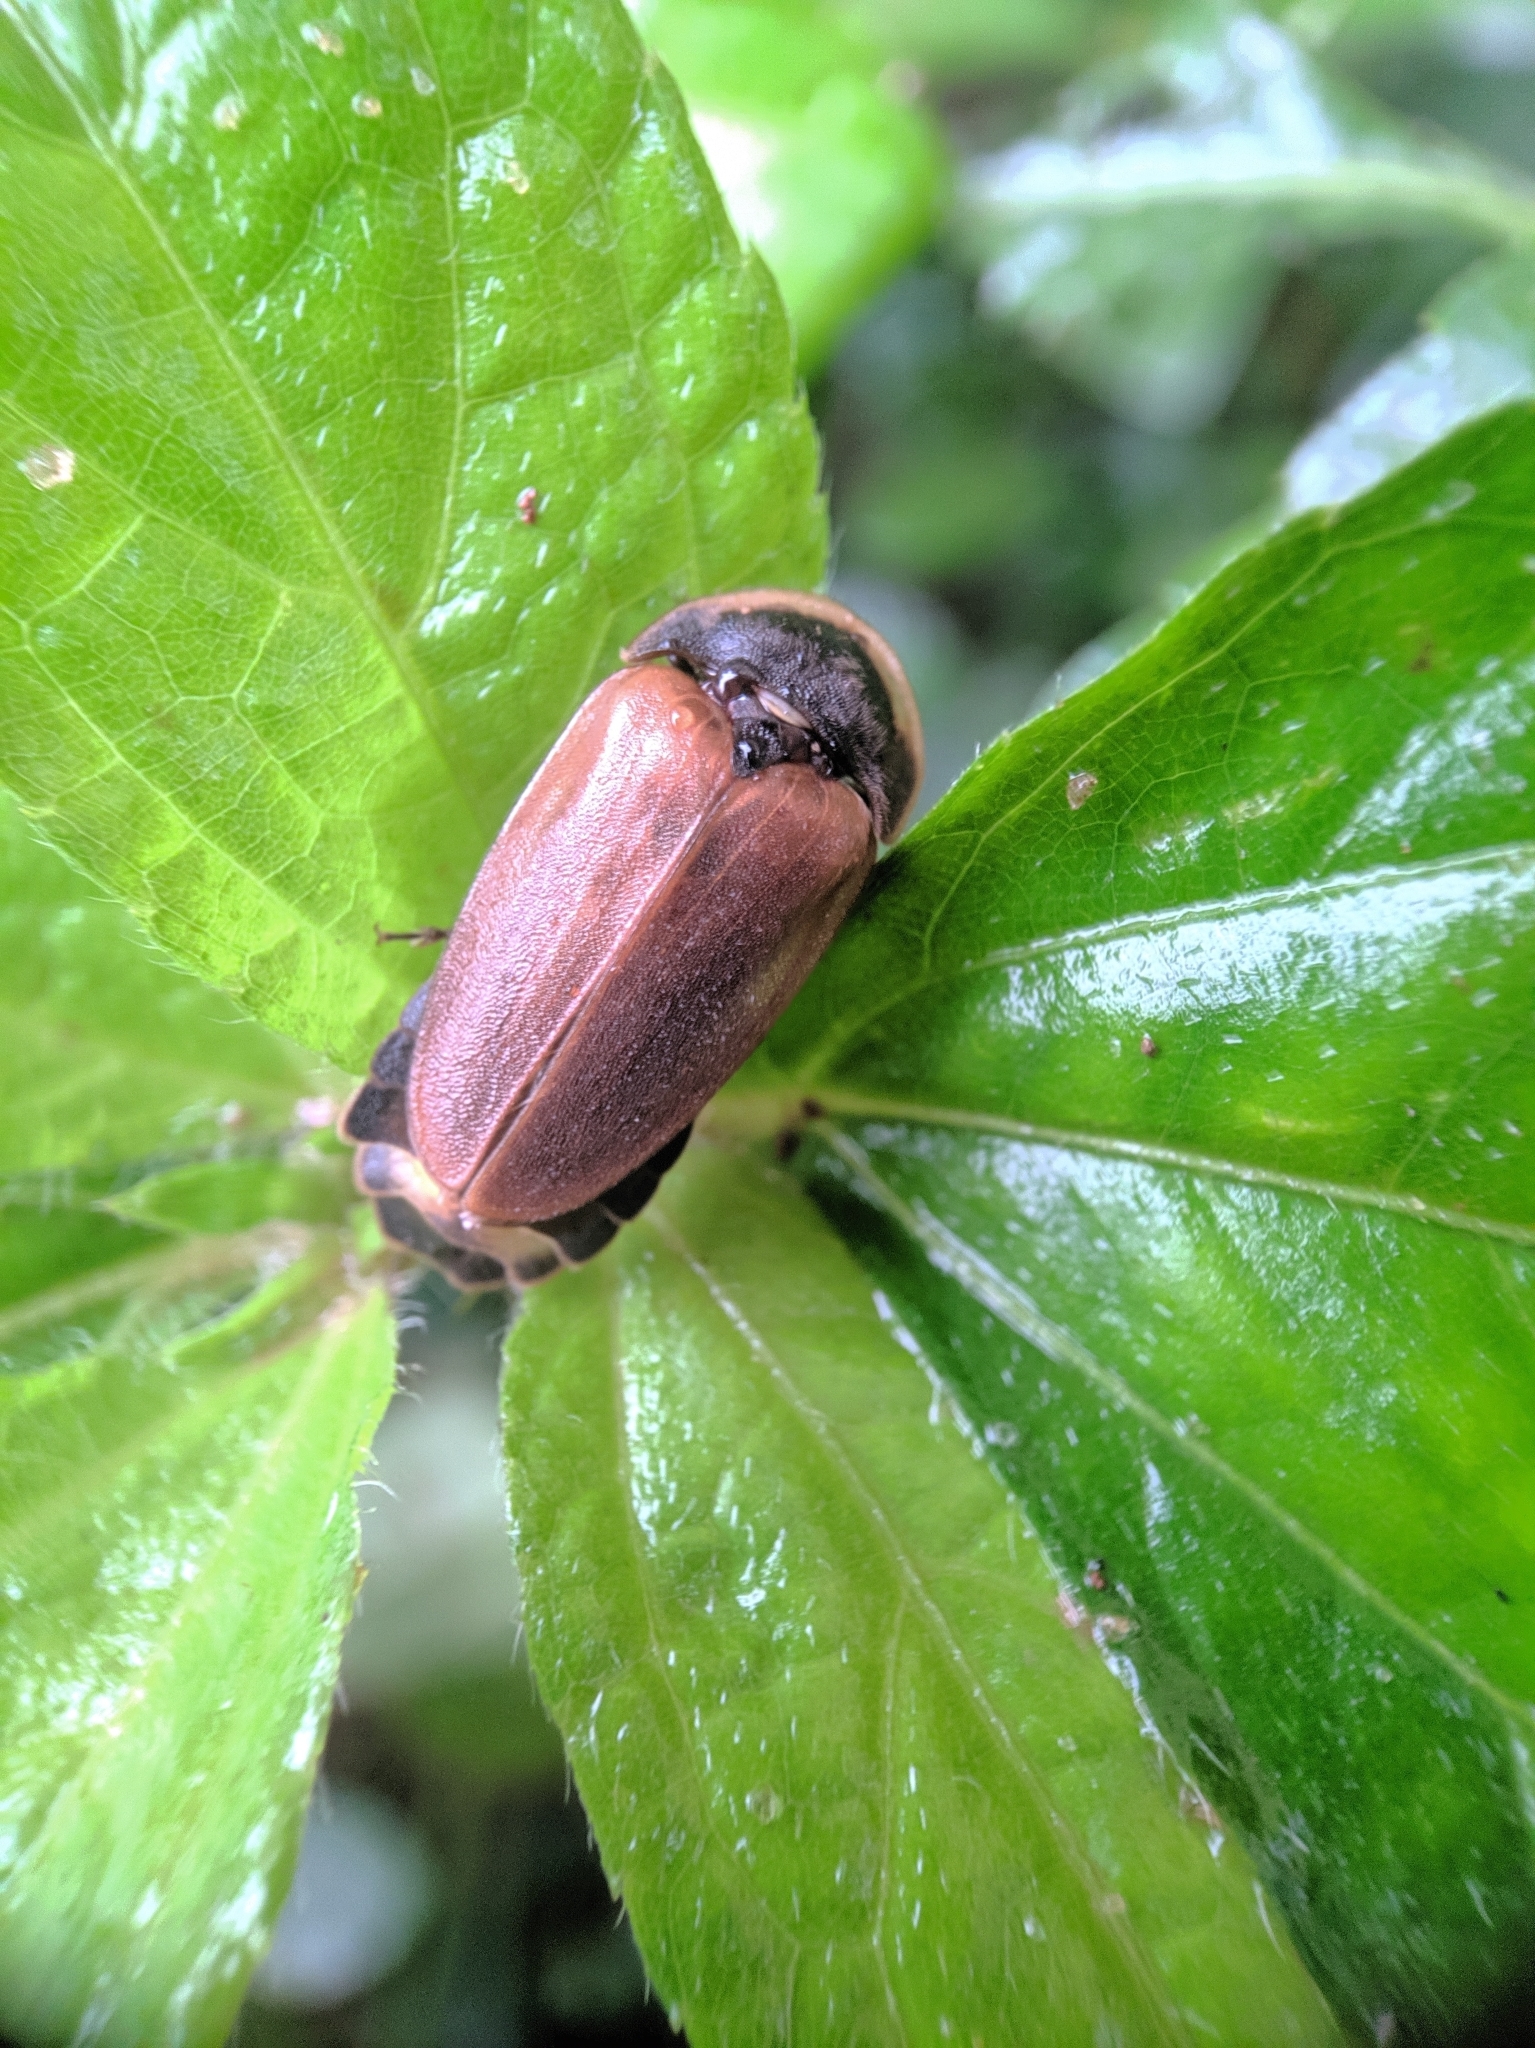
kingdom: Animalia
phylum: Arthropoda
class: Insecta
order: Coleoptera
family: Lampyridae
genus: Lamprigera
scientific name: Lamprigera tenebrosa
